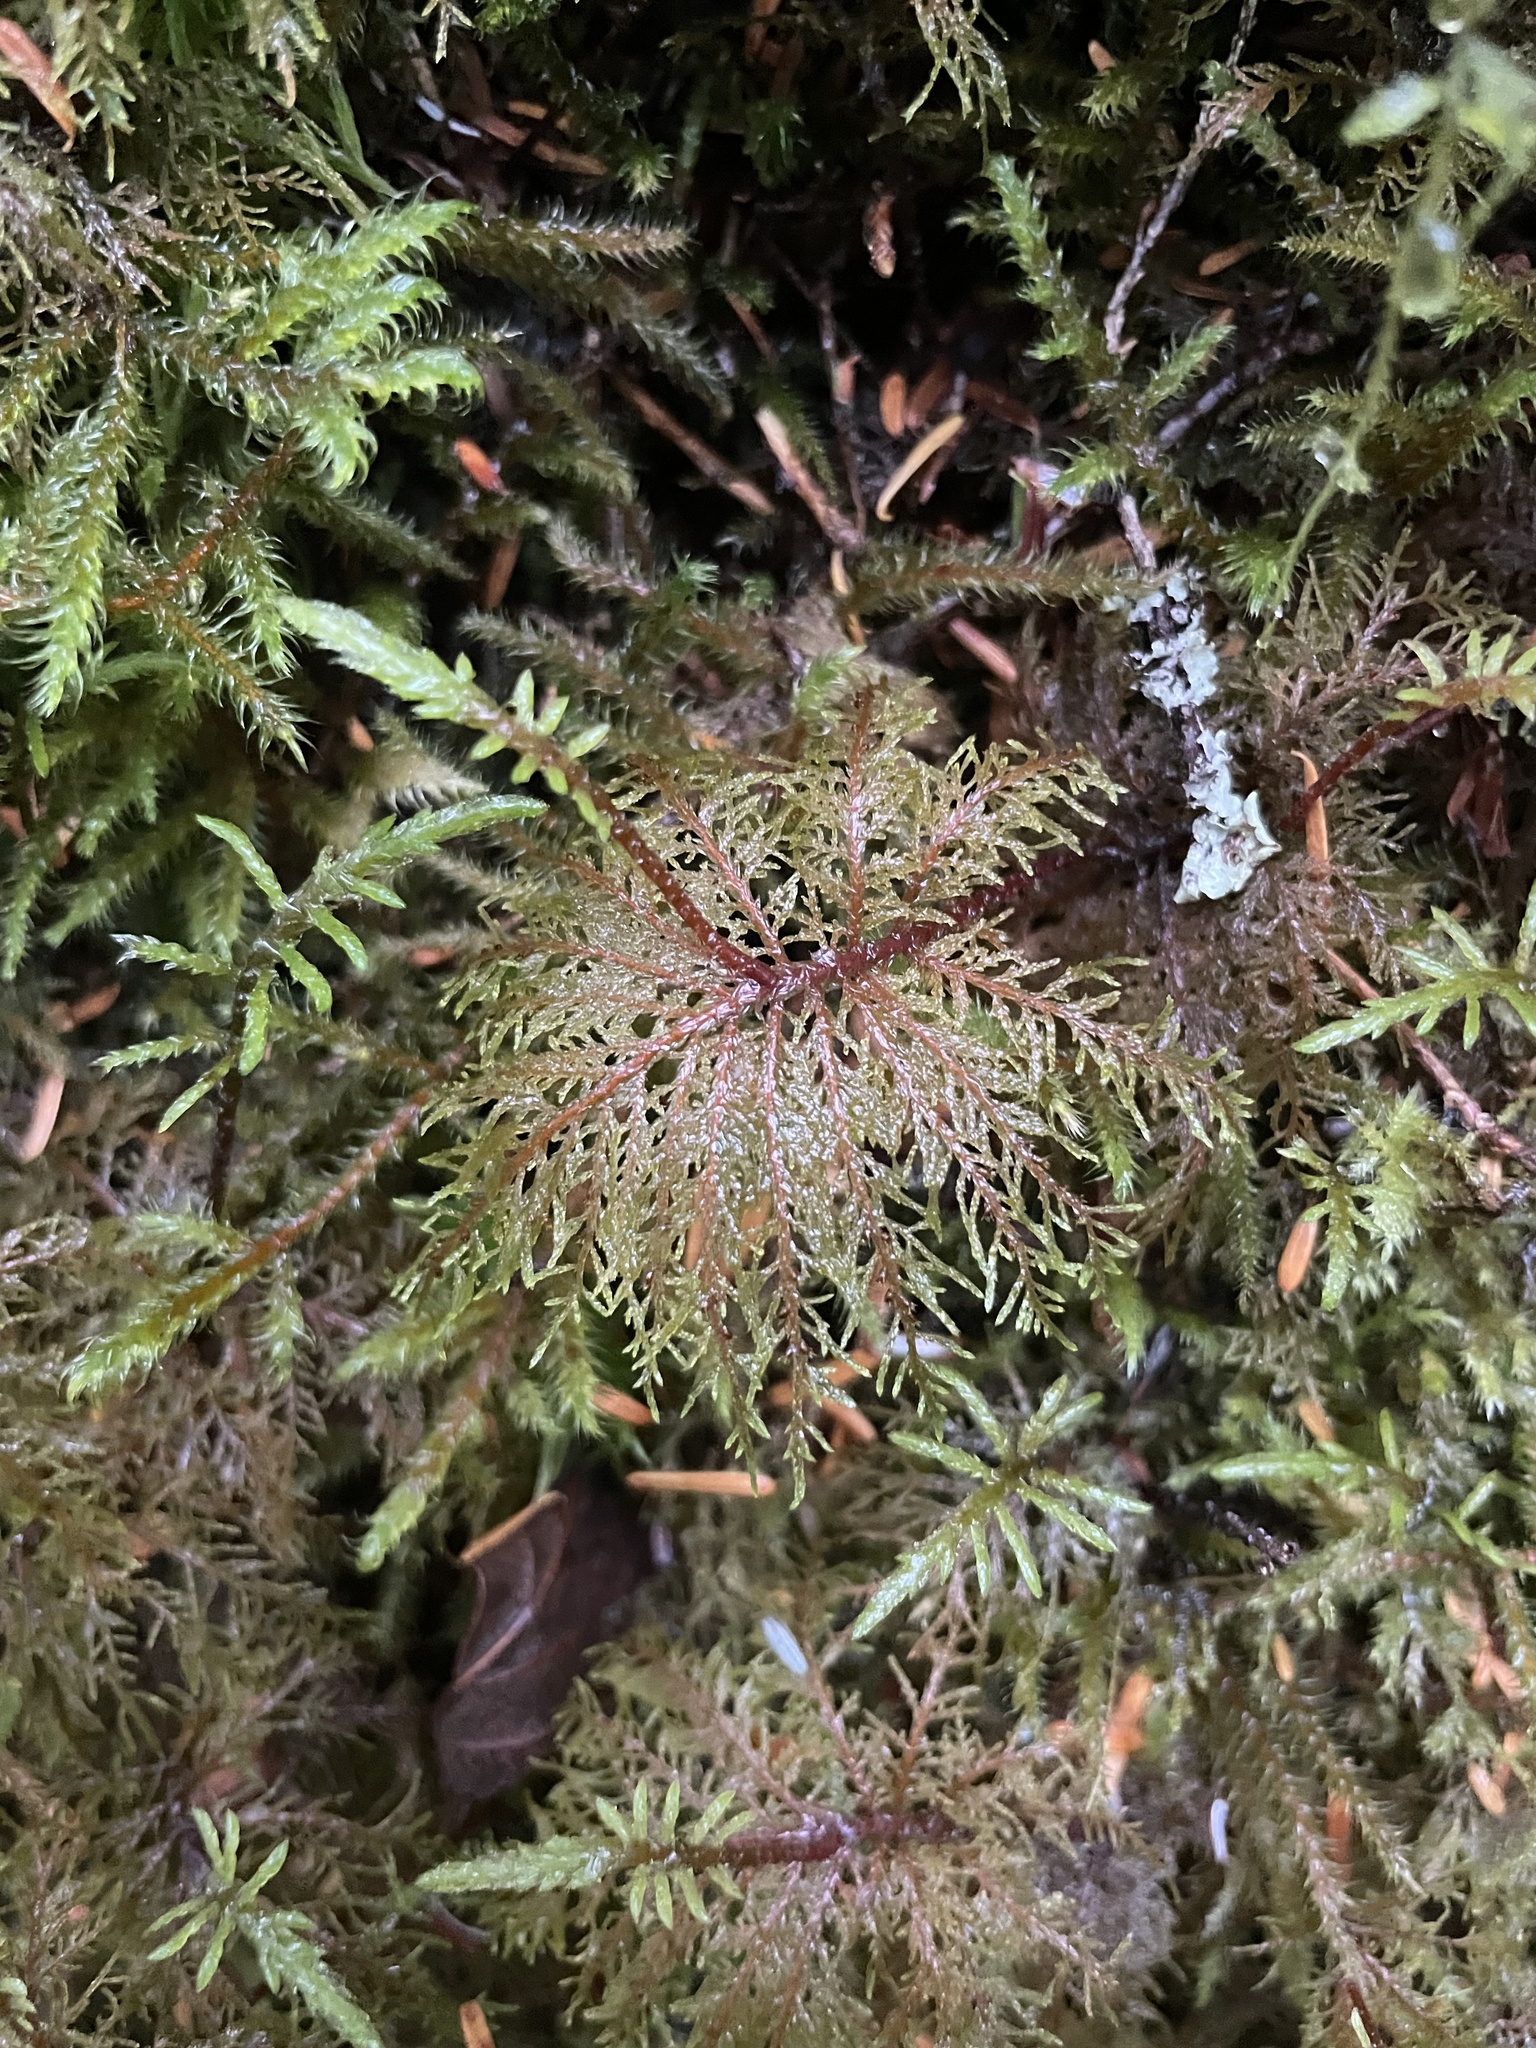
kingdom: Plantae
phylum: Bryophyta
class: Bryopsida
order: Hypnales
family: Hylocomiaceae
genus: Hylocomium
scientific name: Hylocomium splendens
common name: Stairstep moss
